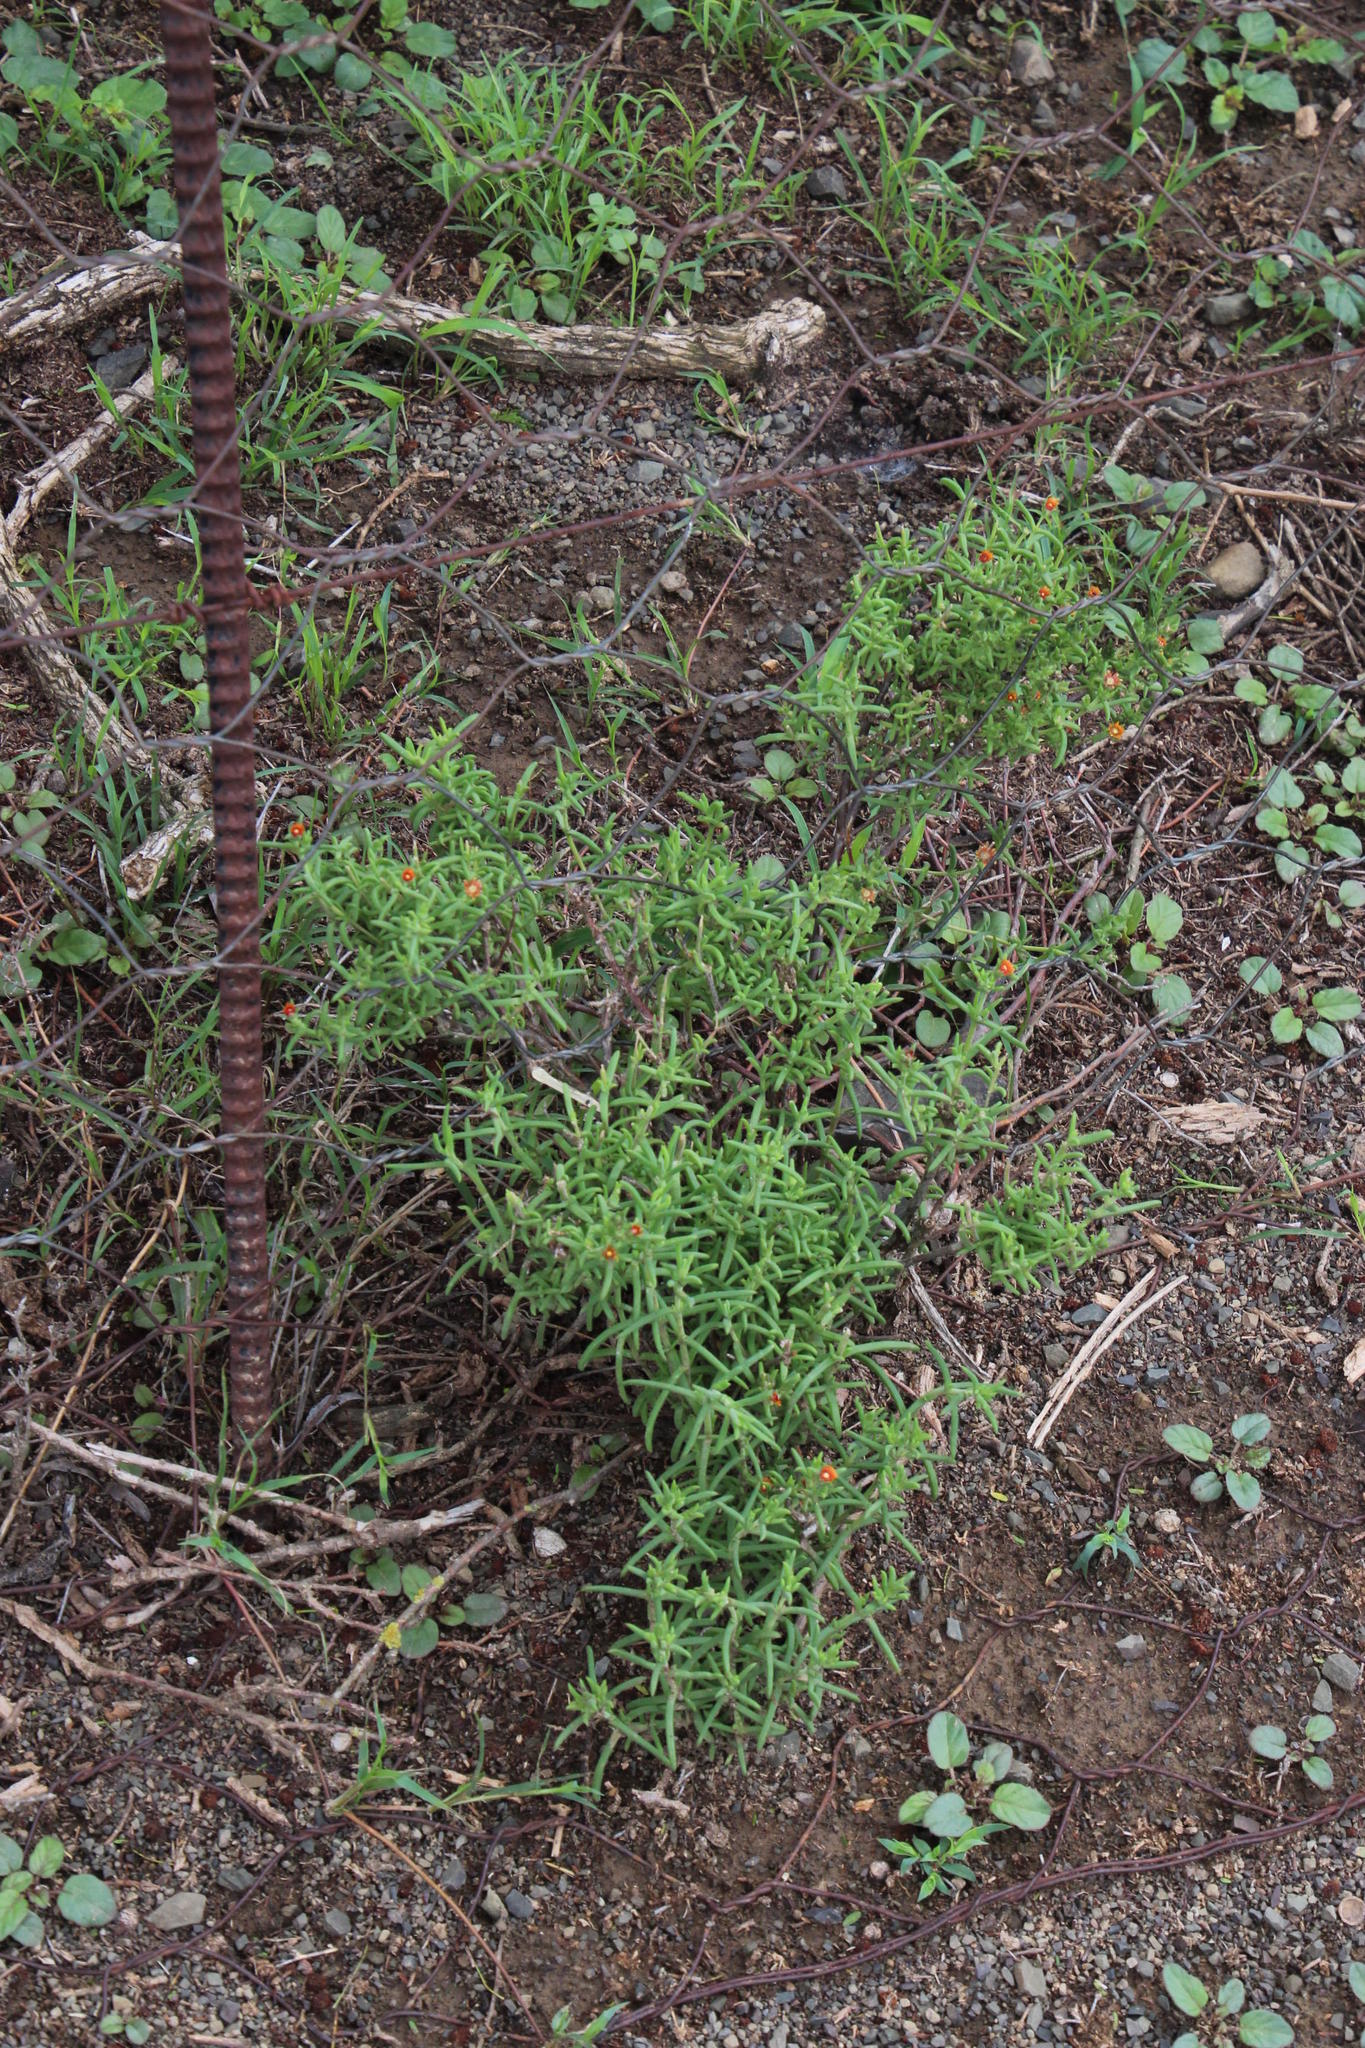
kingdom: Plantae
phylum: Tracheophyta
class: Magnoliopsida
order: Caryophyllales
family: Aizoaceae
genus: Delosperma
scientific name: Delosperma testaceum
